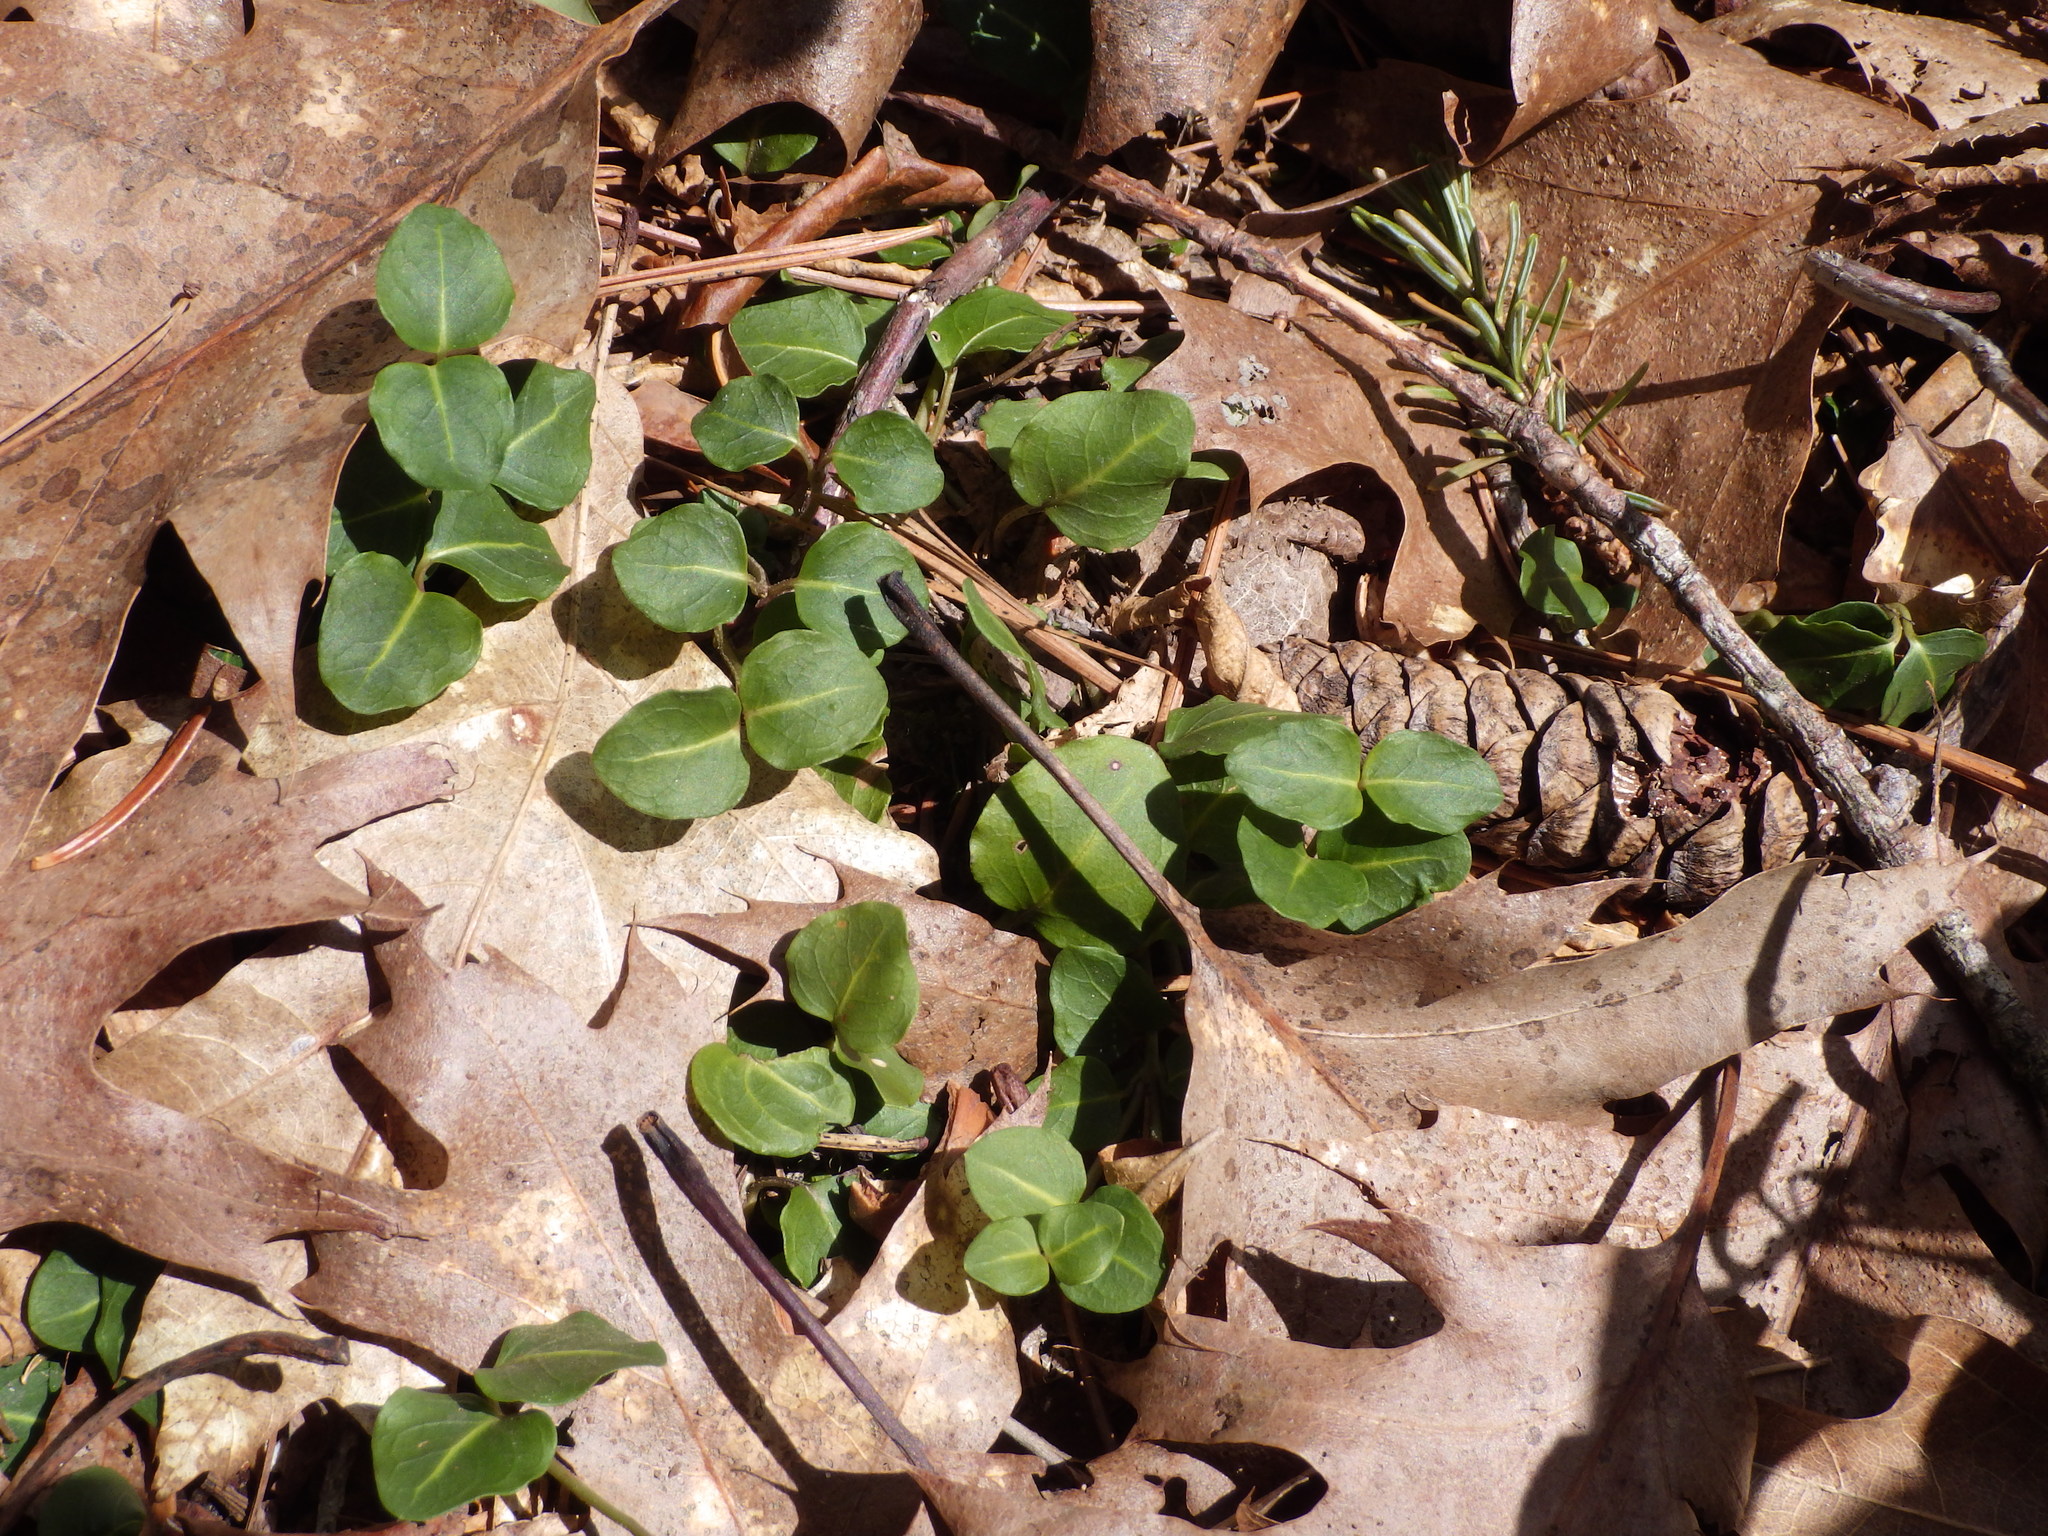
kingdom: Plantae
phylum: Tracheophyta
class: Magnoliopsida
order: Gentianales
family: Rubiaceae
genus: Mitchella
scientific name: Mitchella repens
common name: Partridge-berry
